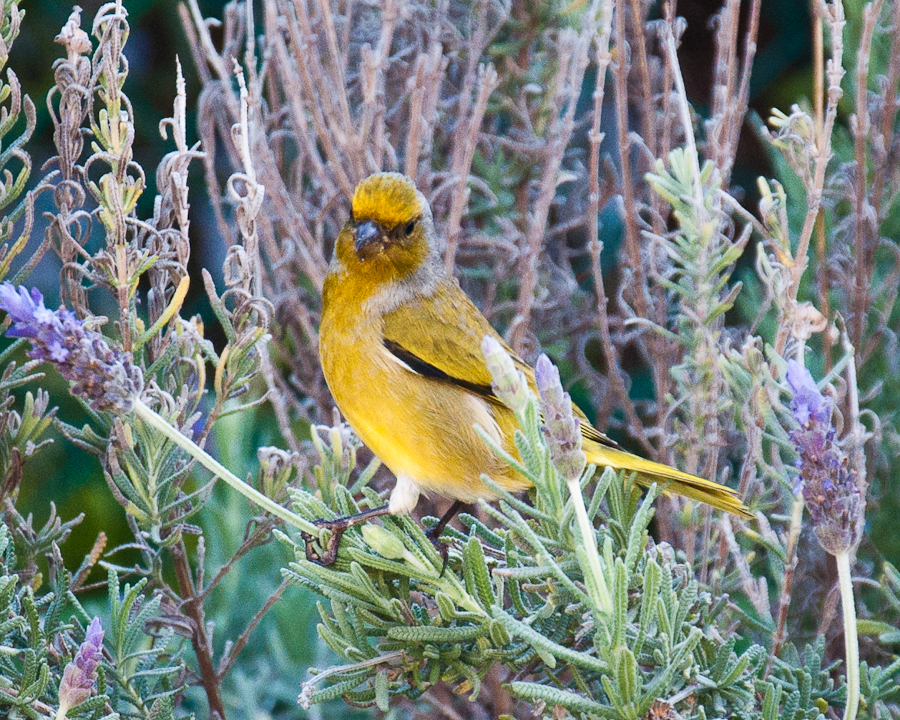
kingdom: Animalia
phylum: Chordata
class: Aves
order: Passeriformes
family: Fringillidae
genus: Serinus
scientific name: Serinus canicollis
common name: Cape canary
